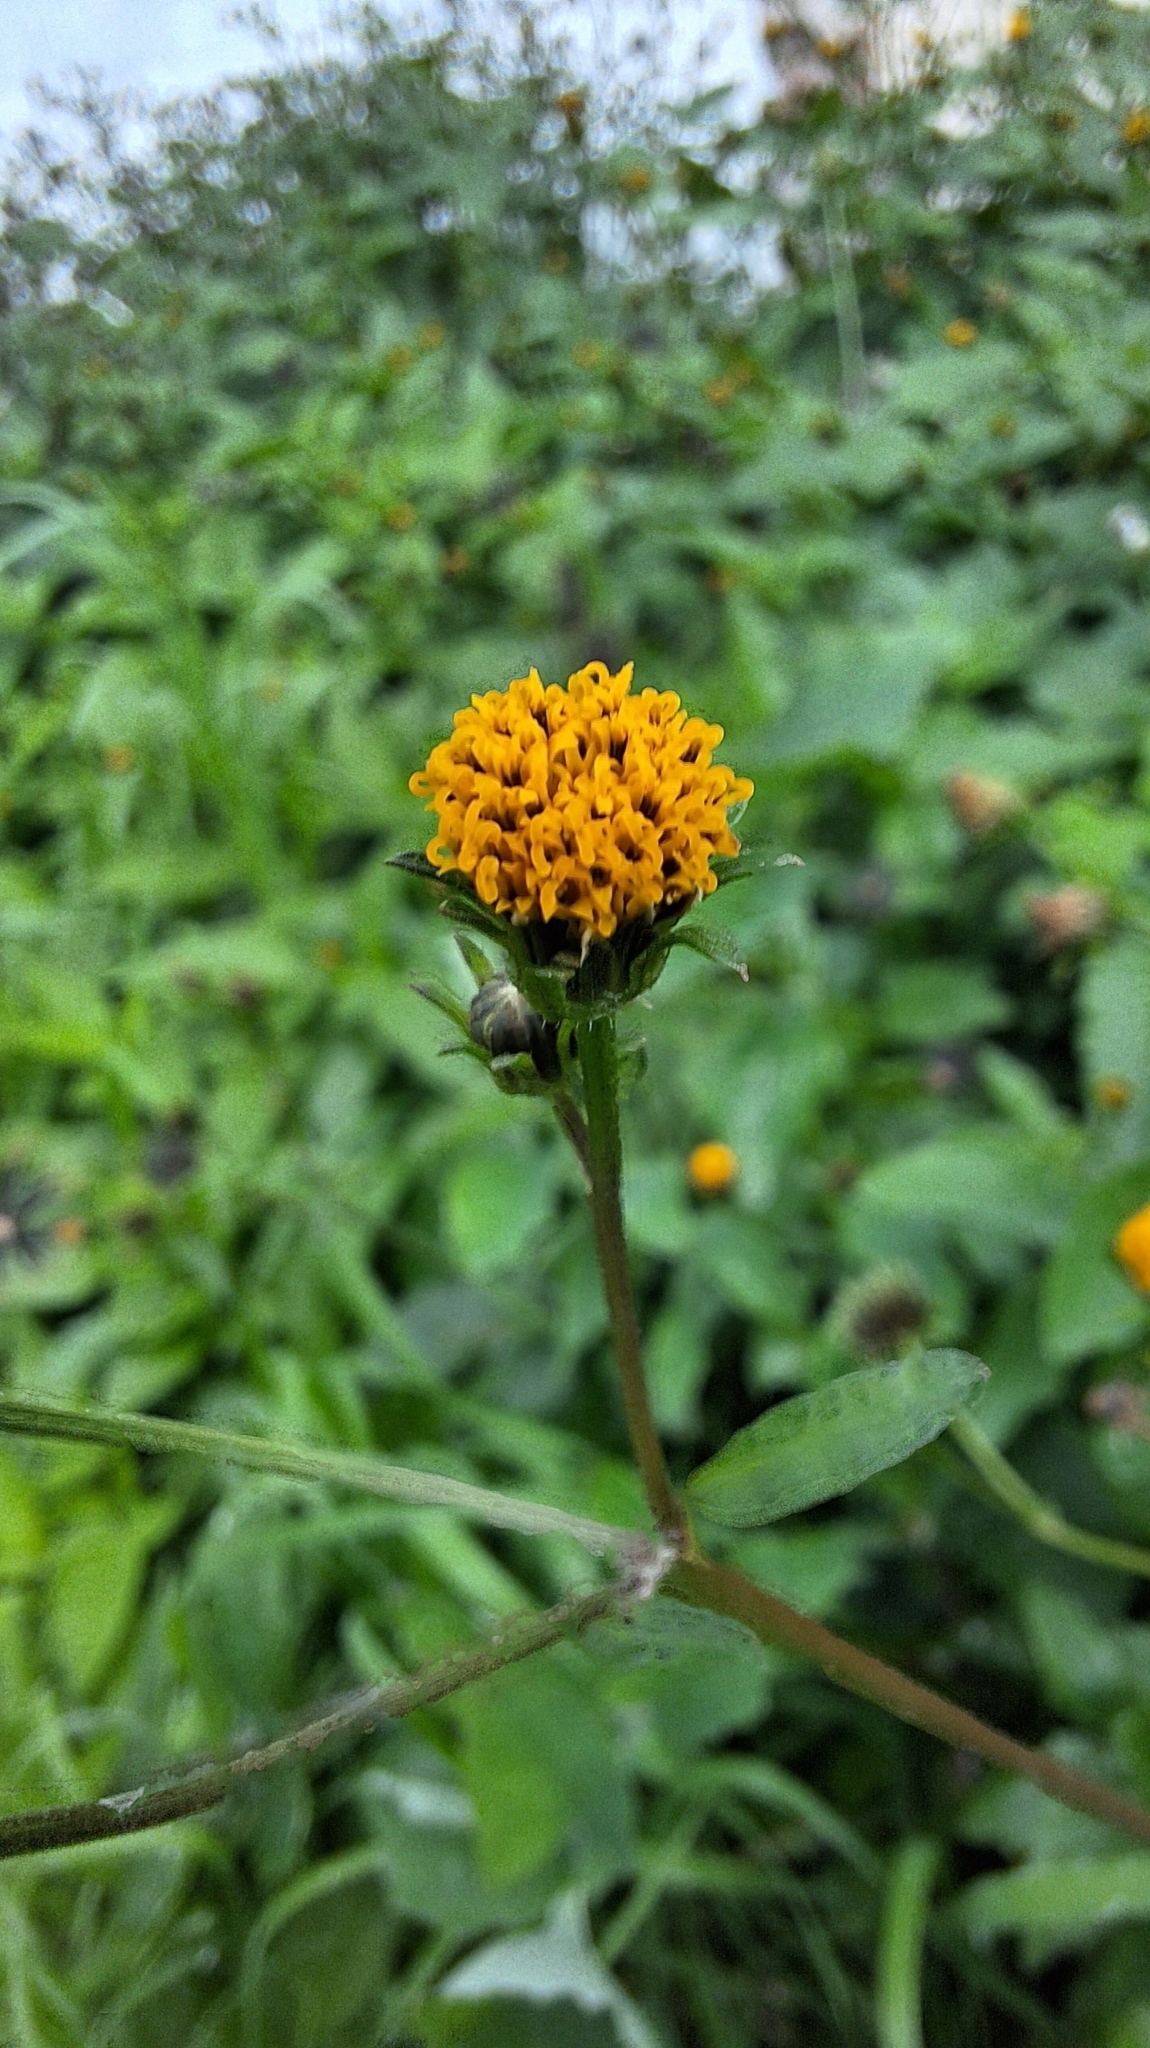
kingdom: Plantae
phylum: Tracheophyta
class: Magnoliopsida
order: Asterales
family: Asteraceae
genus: Bidens
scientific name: Bidens pilosa
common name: Black-jack
